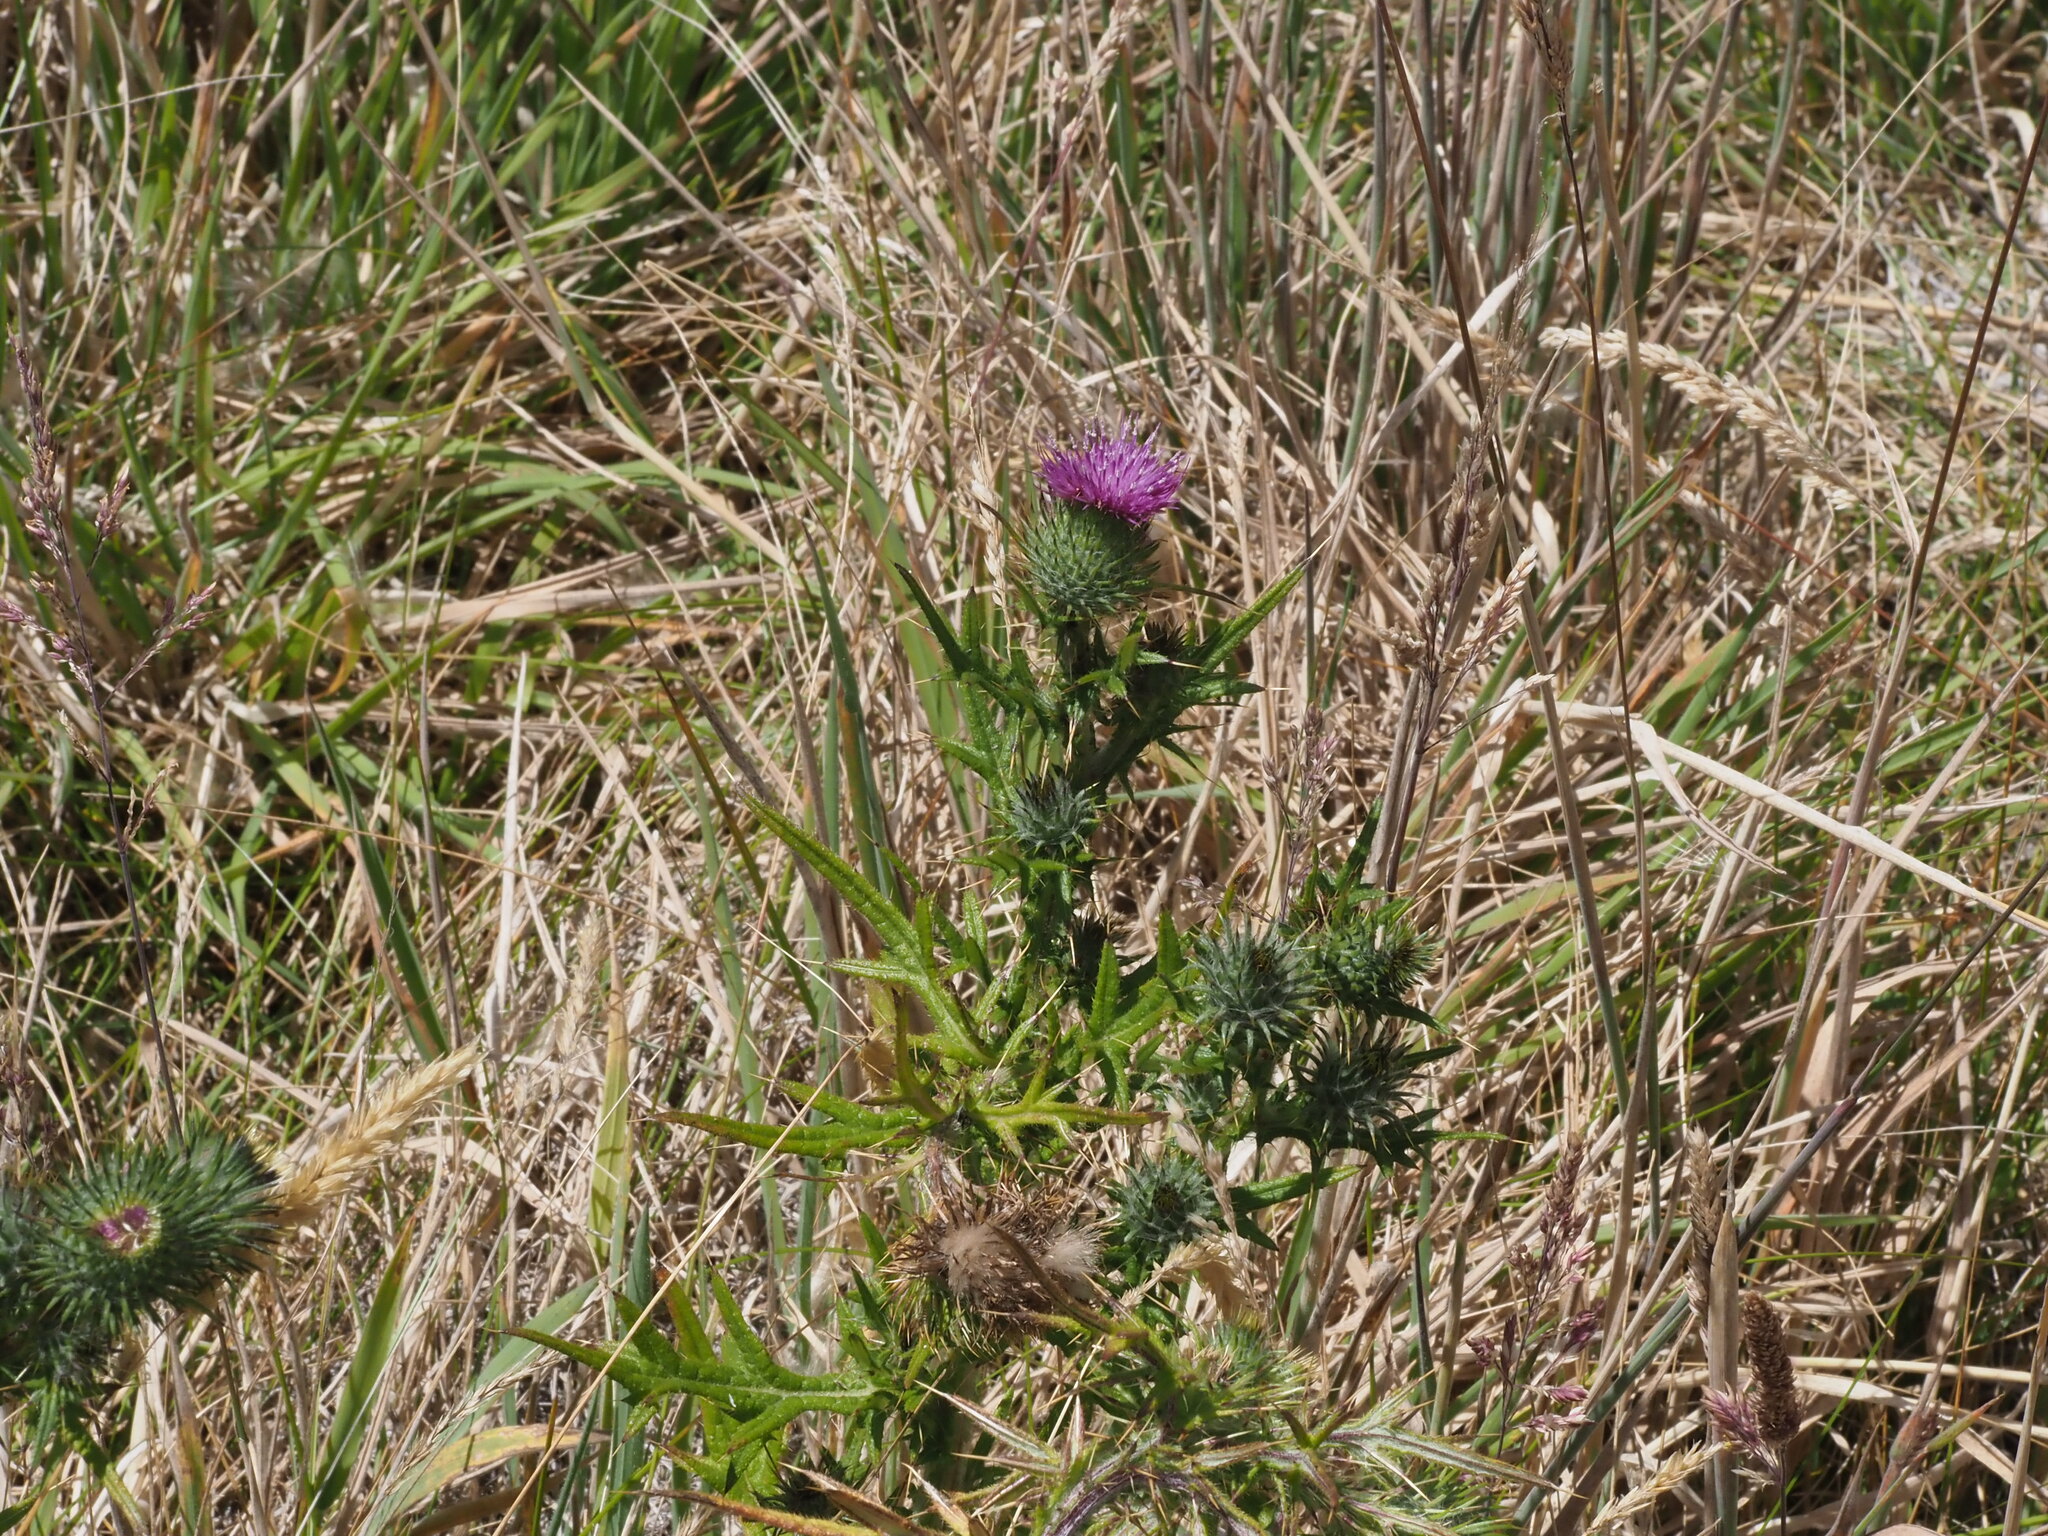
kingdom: Plantae
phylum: Tracheophyta
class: Magnoliopsida
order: Asterales
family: Asteraceae
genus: Cirsium
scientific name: Cirsium vulgare
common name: Bull thistle
